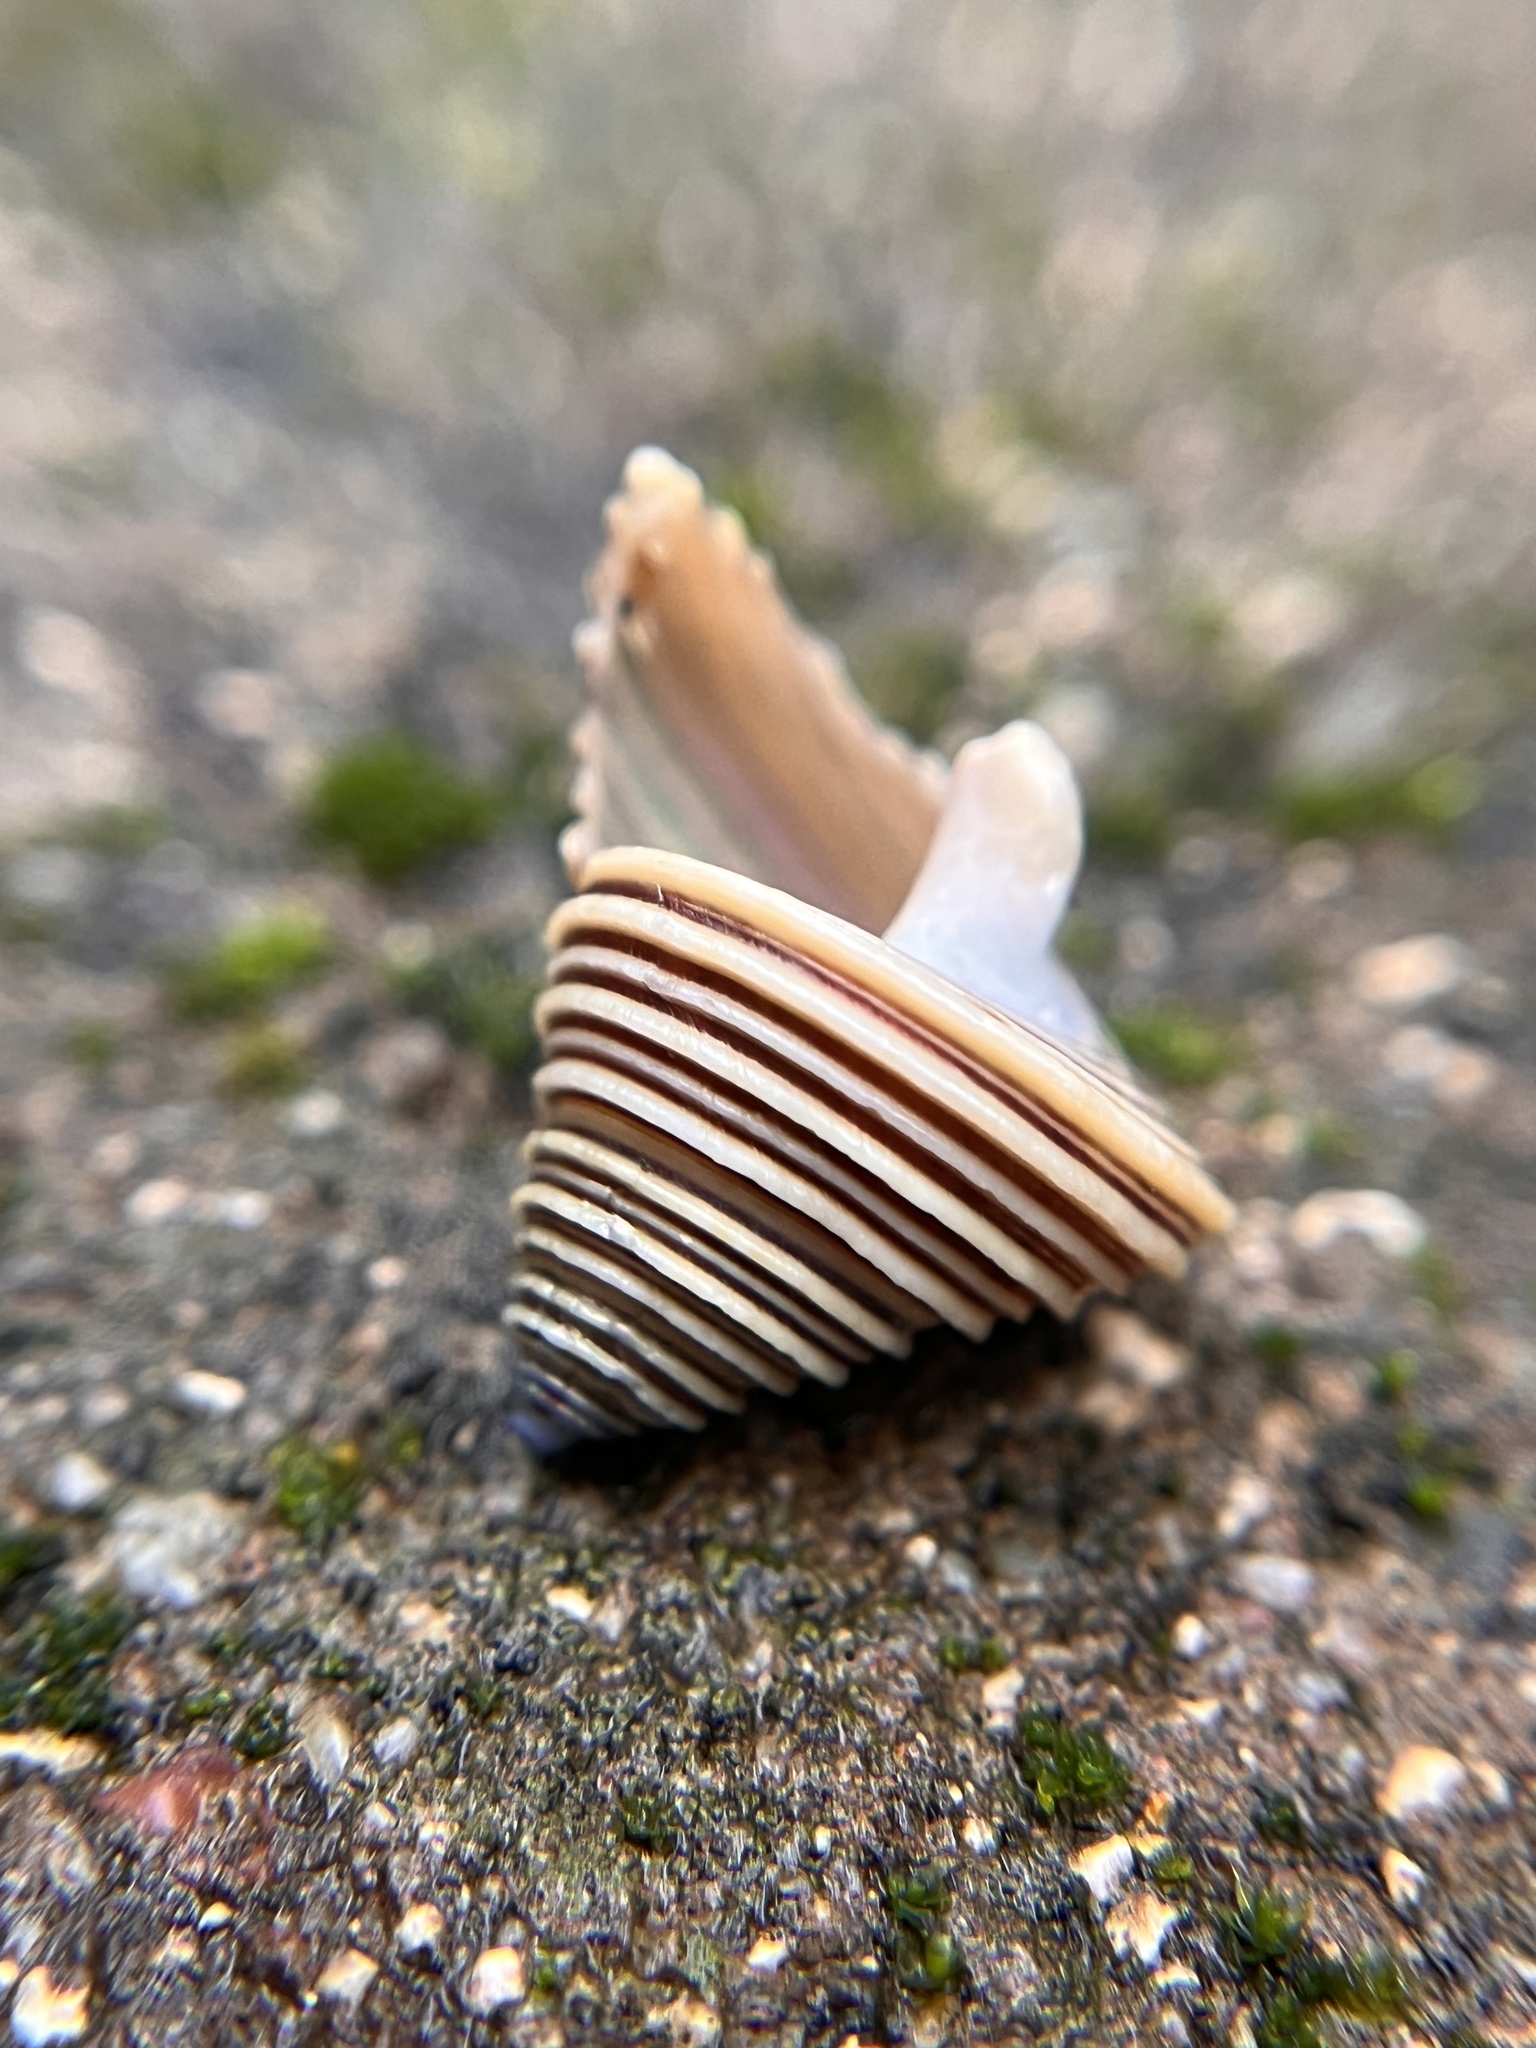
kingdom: Animalia
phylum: Mollusca
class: Gastropoda
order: Trochida
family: Calliostomatidae
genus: Calliostoma
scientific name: Calliostoma canaliculatum
